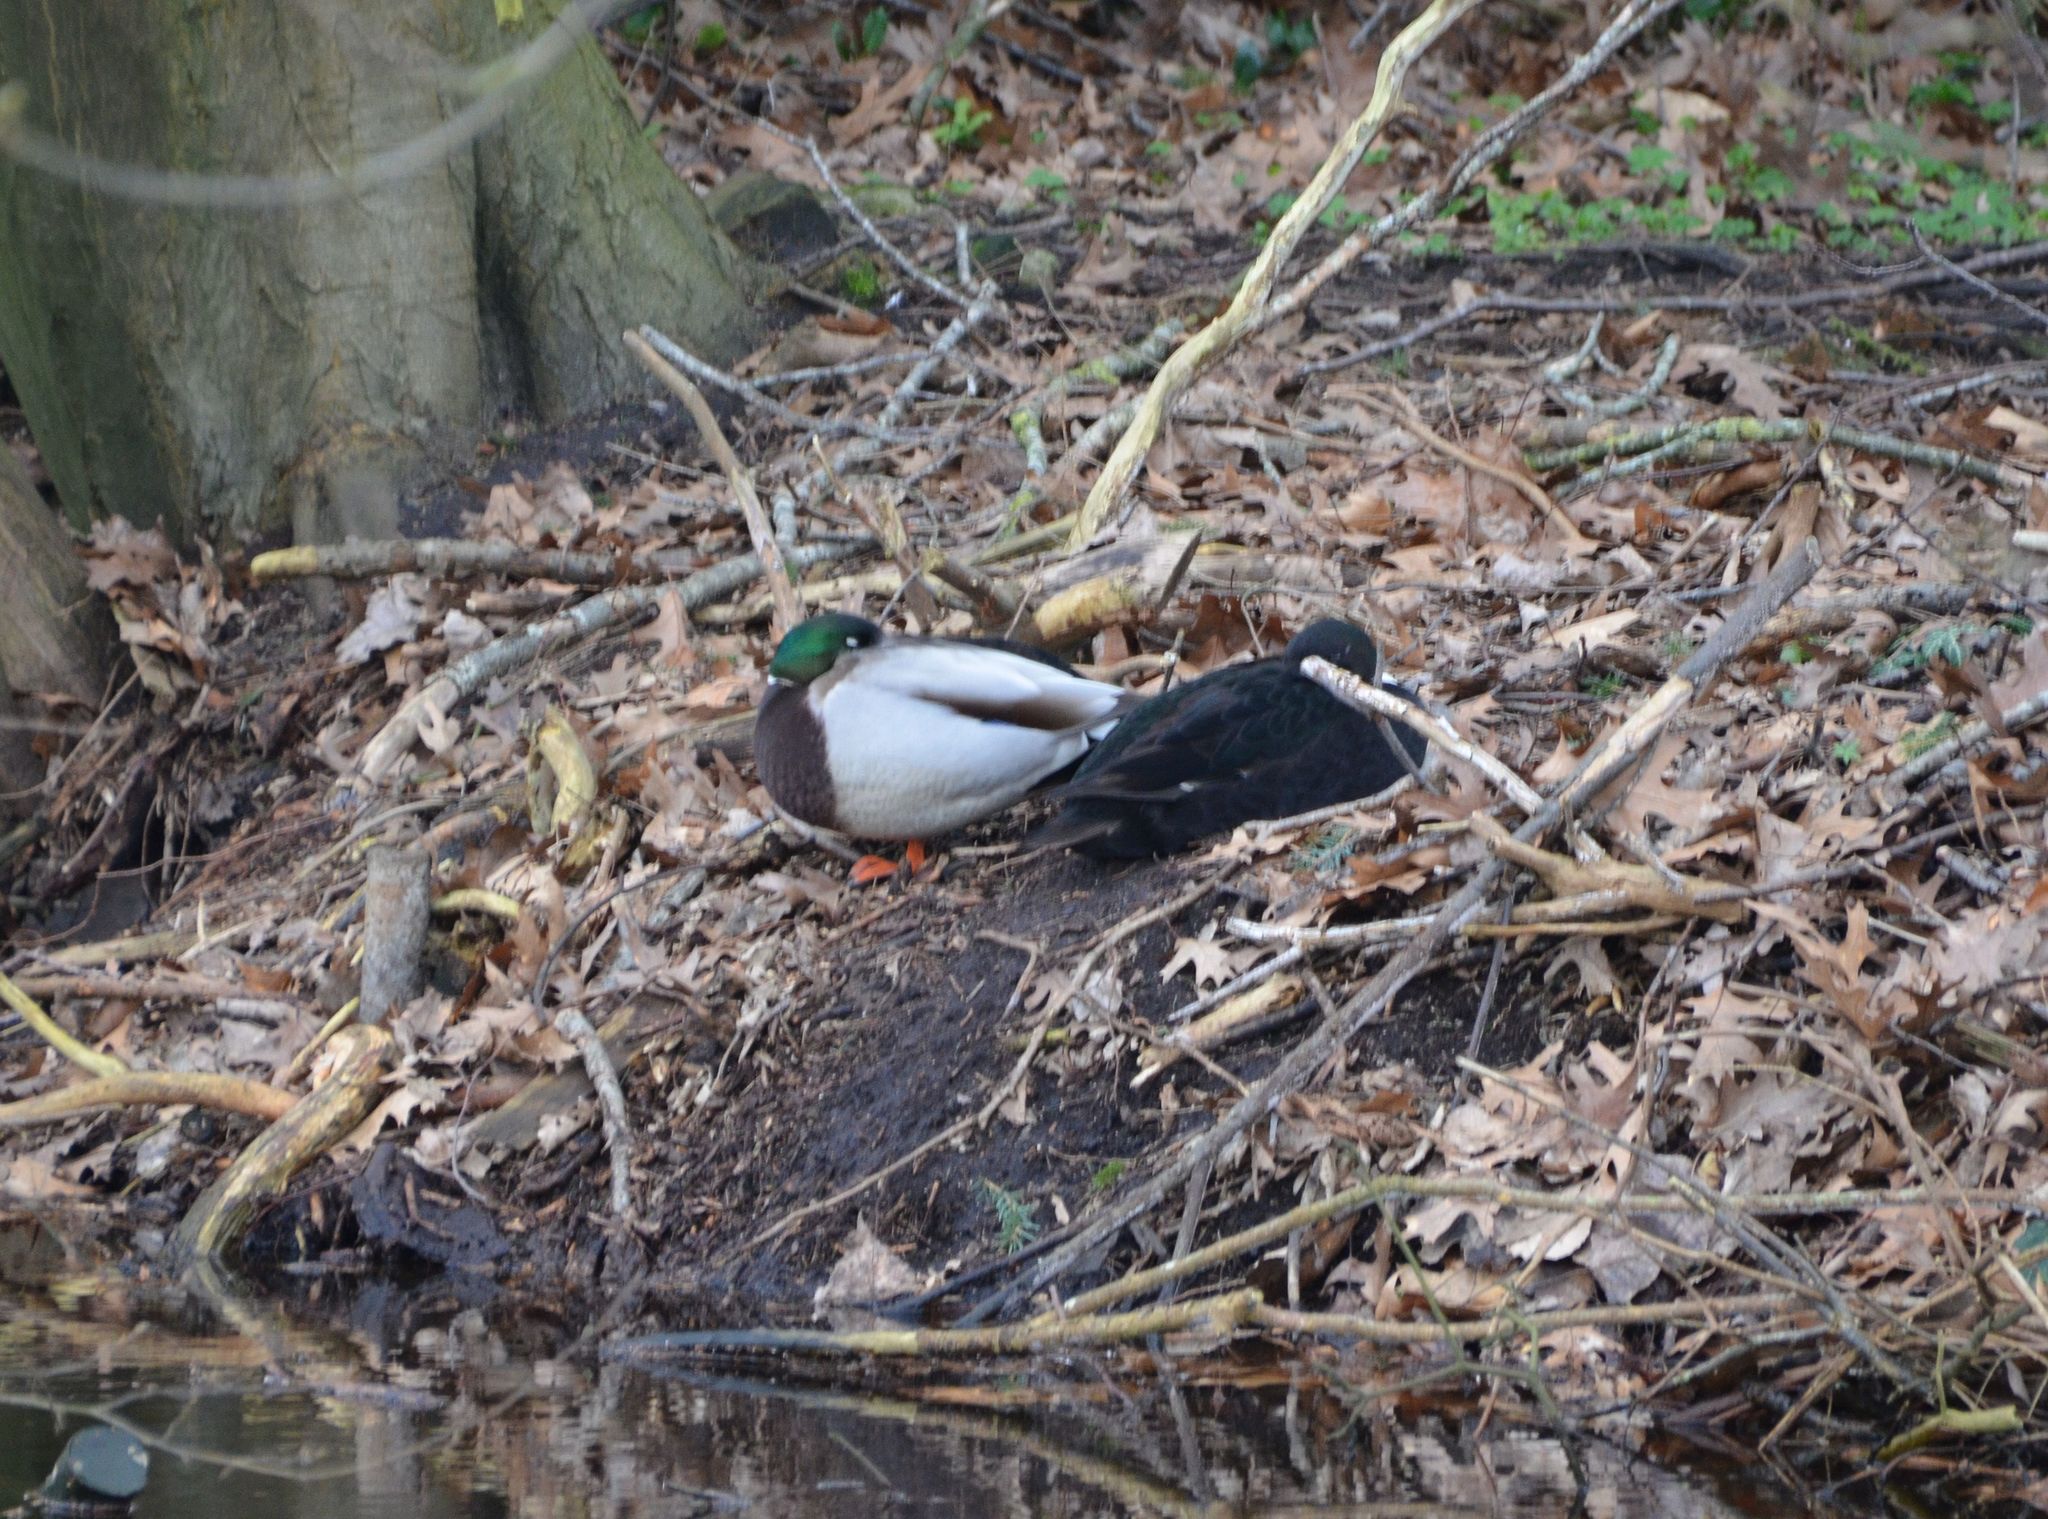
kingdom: Animalia
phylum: Chordata
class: Aves
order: Anseriformes
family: Anatidae
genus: Anas
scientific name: Anas platyrhynchos
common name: Mallard
